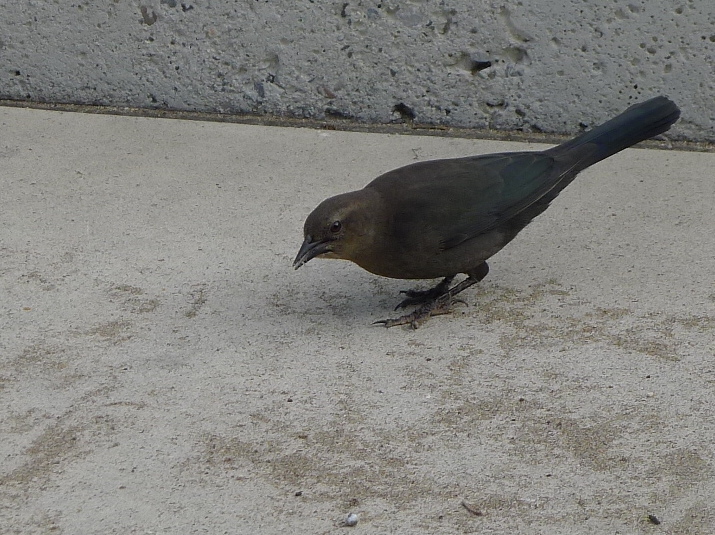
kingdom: Animalia
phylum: Chordata
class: Aves
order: Passeriformes
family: Icteridae
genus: Euphagus
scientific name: Euphagus cyanocephalus
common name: Brewer's blackbird
